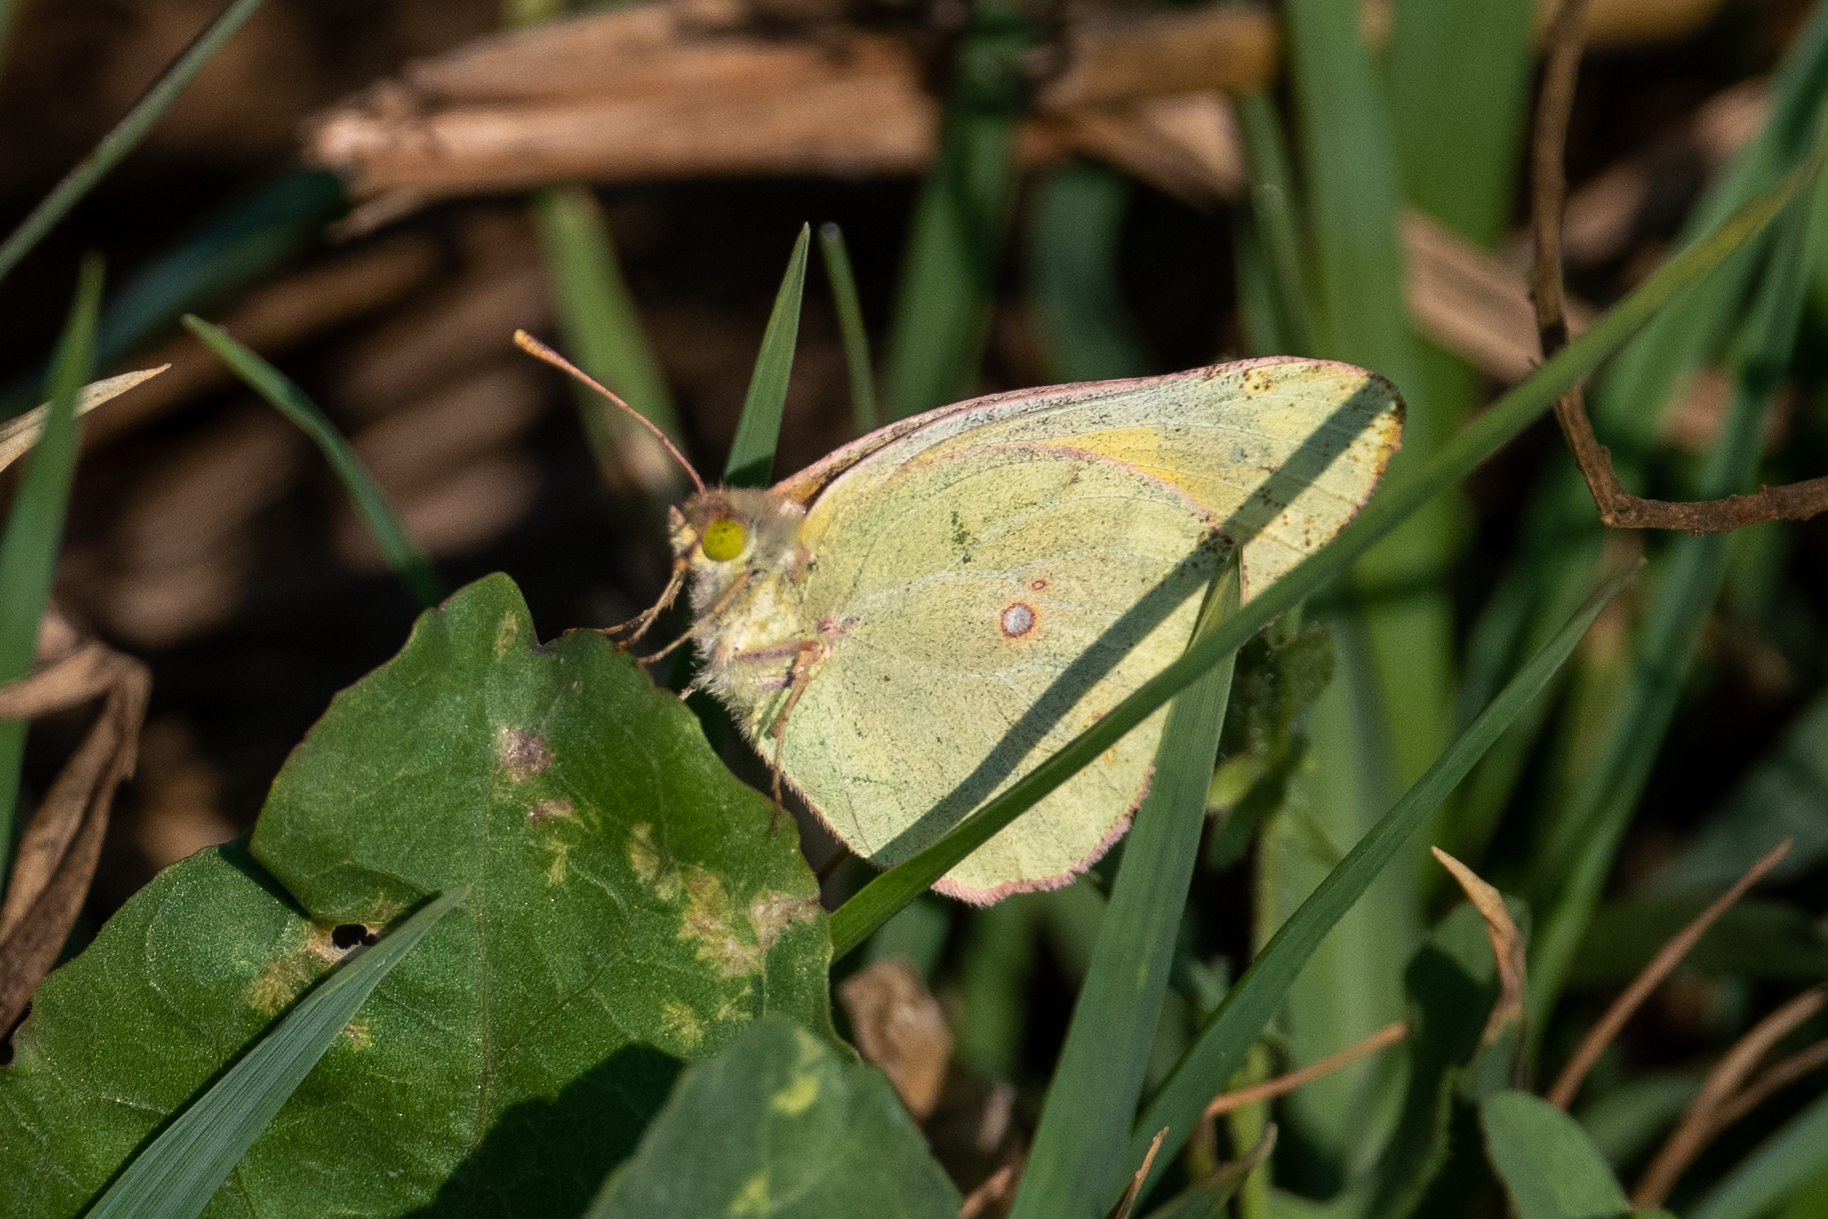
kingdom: Animalia
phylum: Arthropoda
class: Insecta
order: Lepidoptera
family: Pieridae
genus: Colias
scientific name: Colias eurytheme
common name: Alfalfa butterfly
